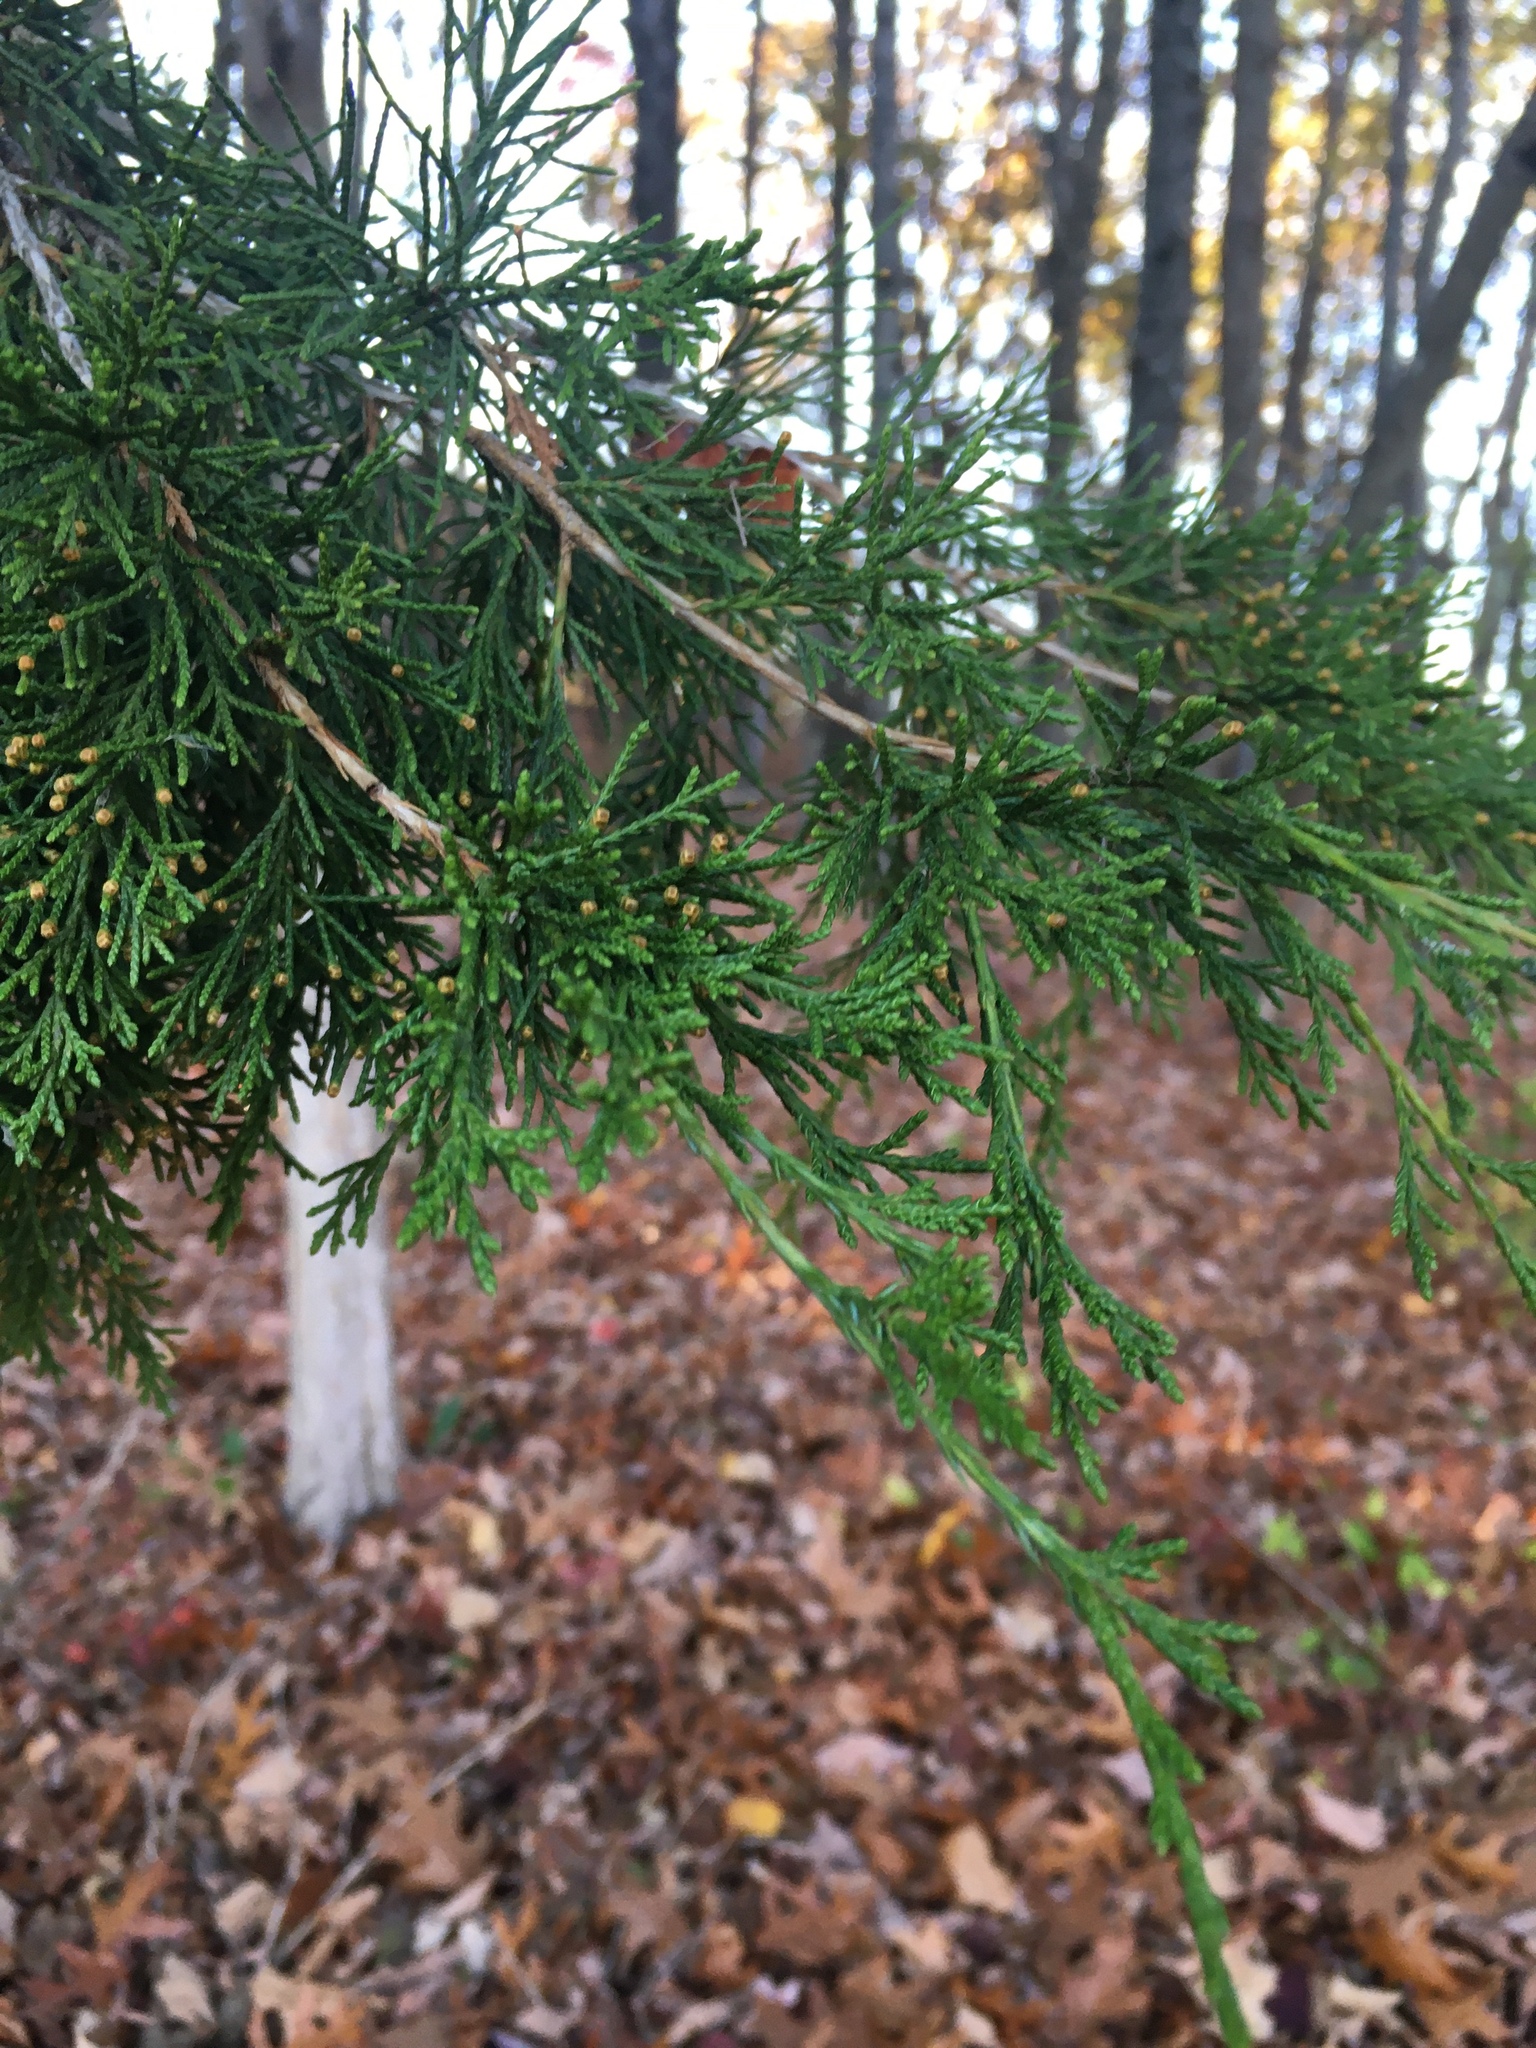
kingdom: Plantae
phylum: Tracheophyta
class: Pinopsida
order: Pinales
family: Cupressaceae
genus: Juniperus
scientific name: Juniperus virginiana
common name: Red juniper
